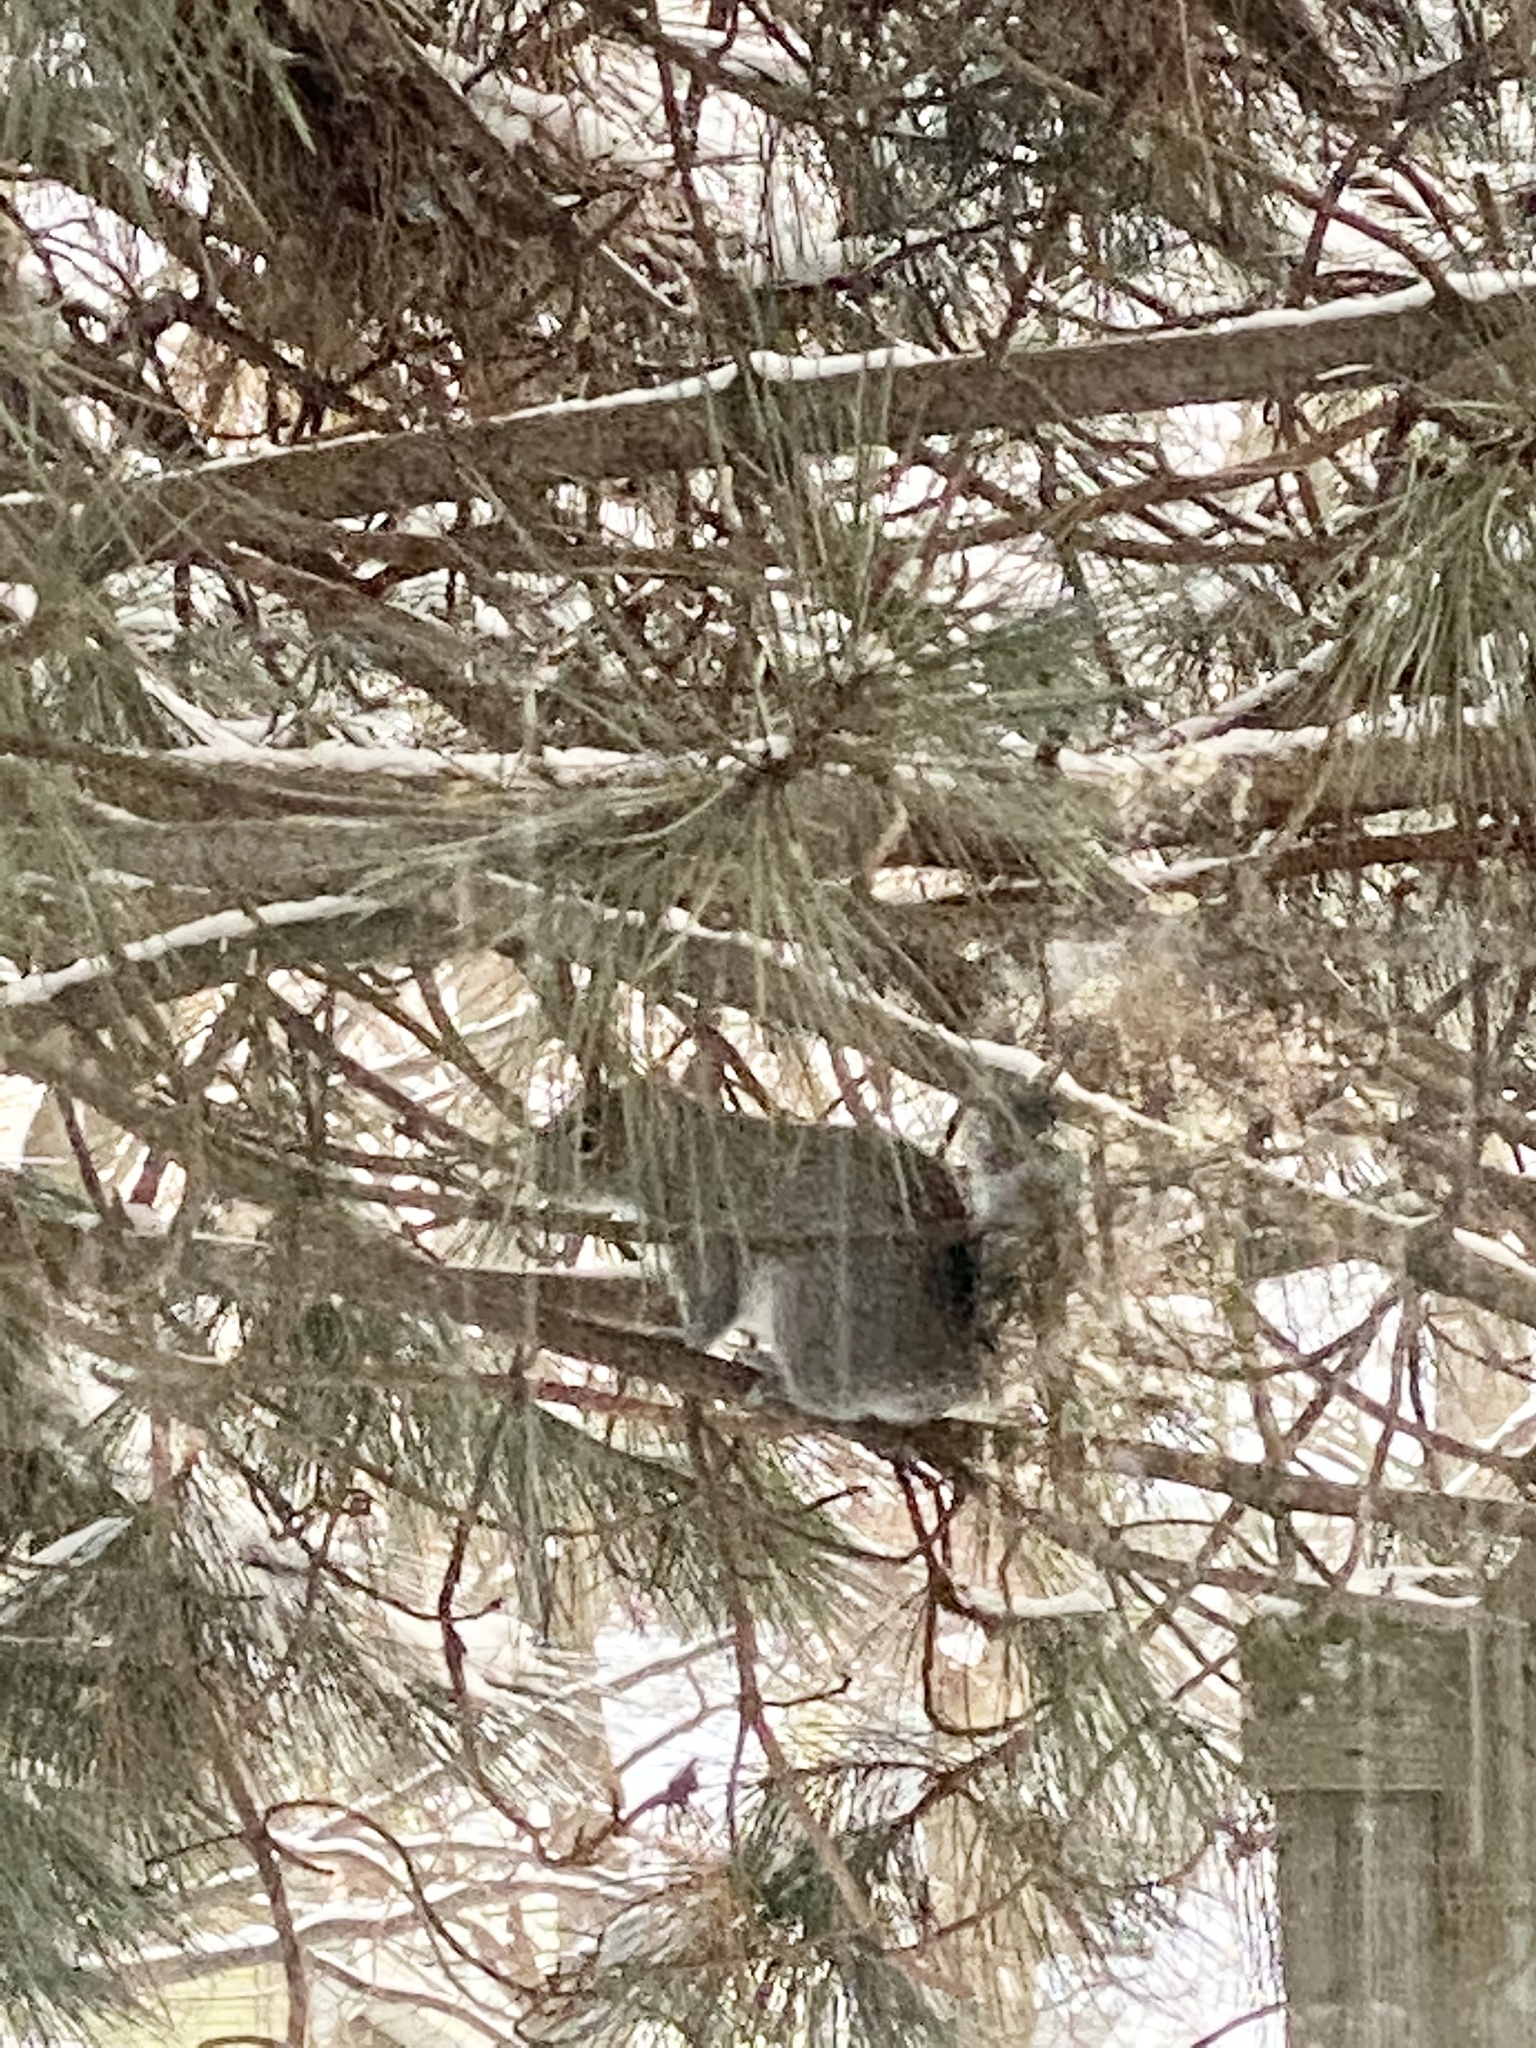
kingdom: Animalia
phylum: Chordata
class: Mammalia
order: Rodentia
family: Sciuridae
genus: Sciurus
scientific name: Sciurus carolinensis
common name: Eastern gray squirrel
